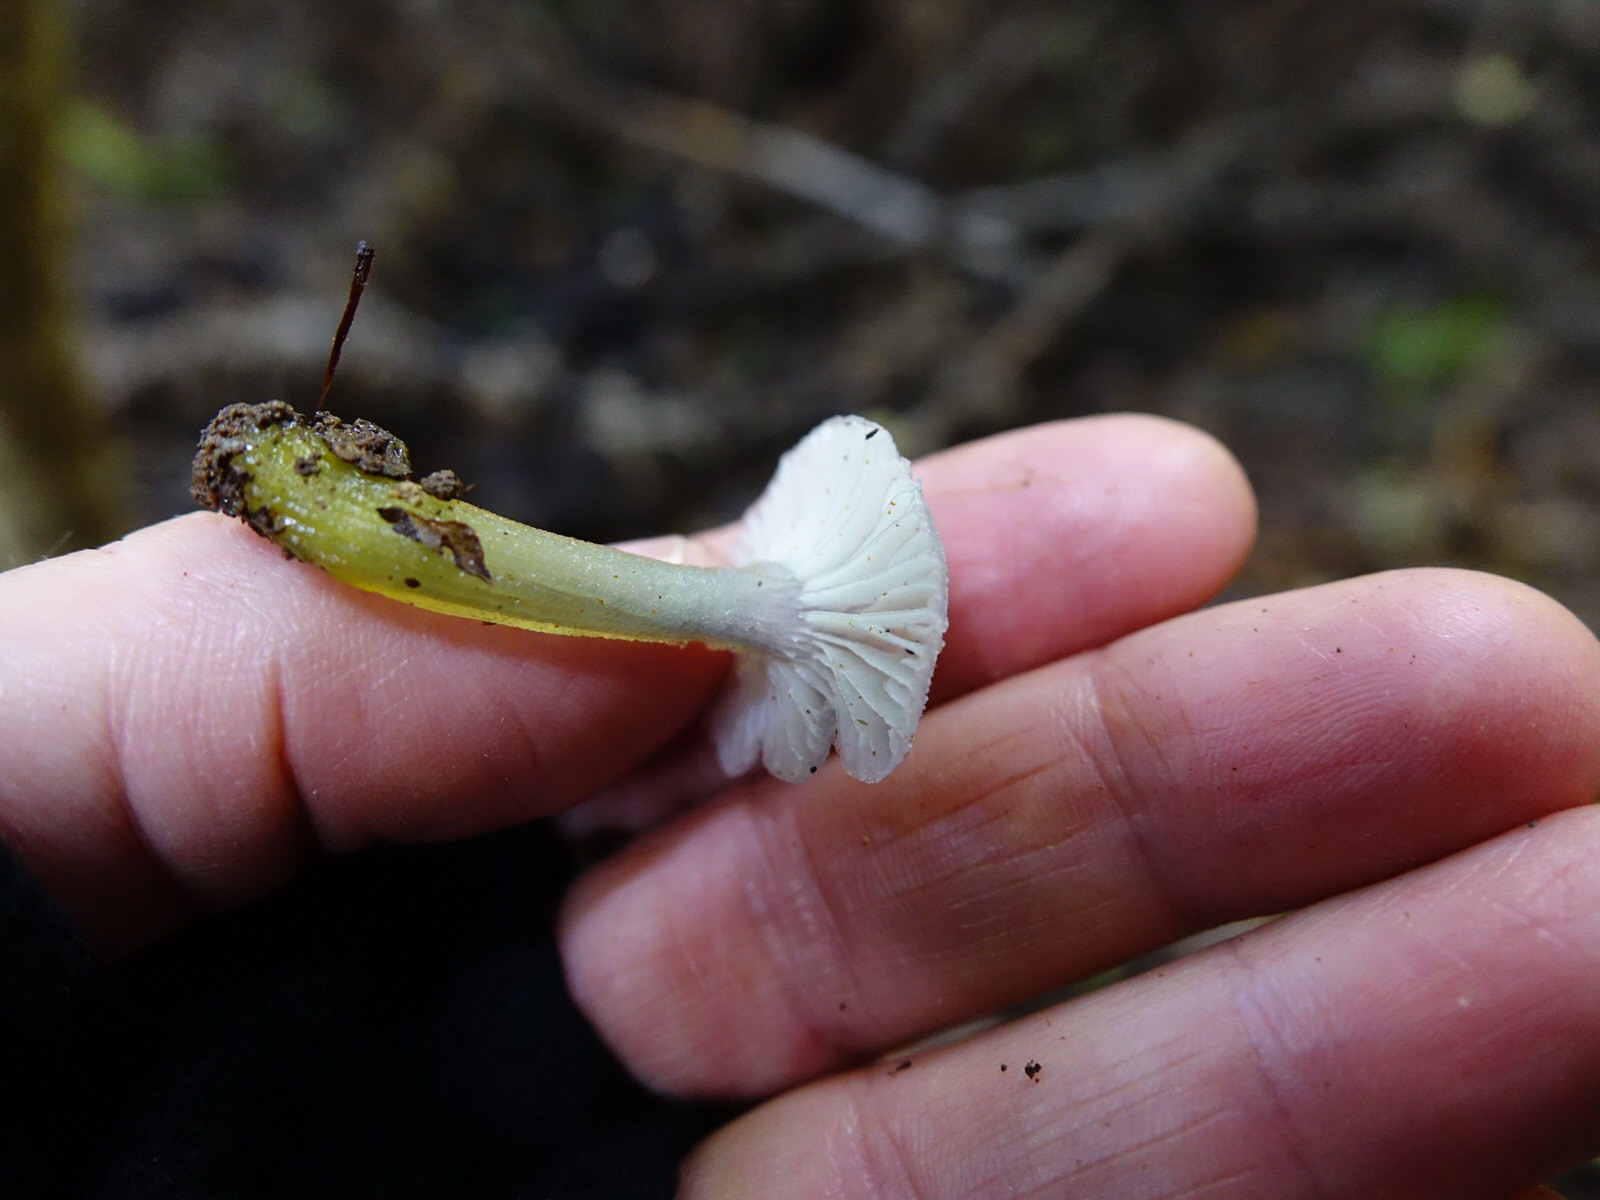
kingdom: Fungi
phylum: Basidiomycota
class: Agaricomycetes
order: Agaricales
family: Hygrophoraceae
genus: Gliophorus
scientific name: Gliophorus lilacipes
